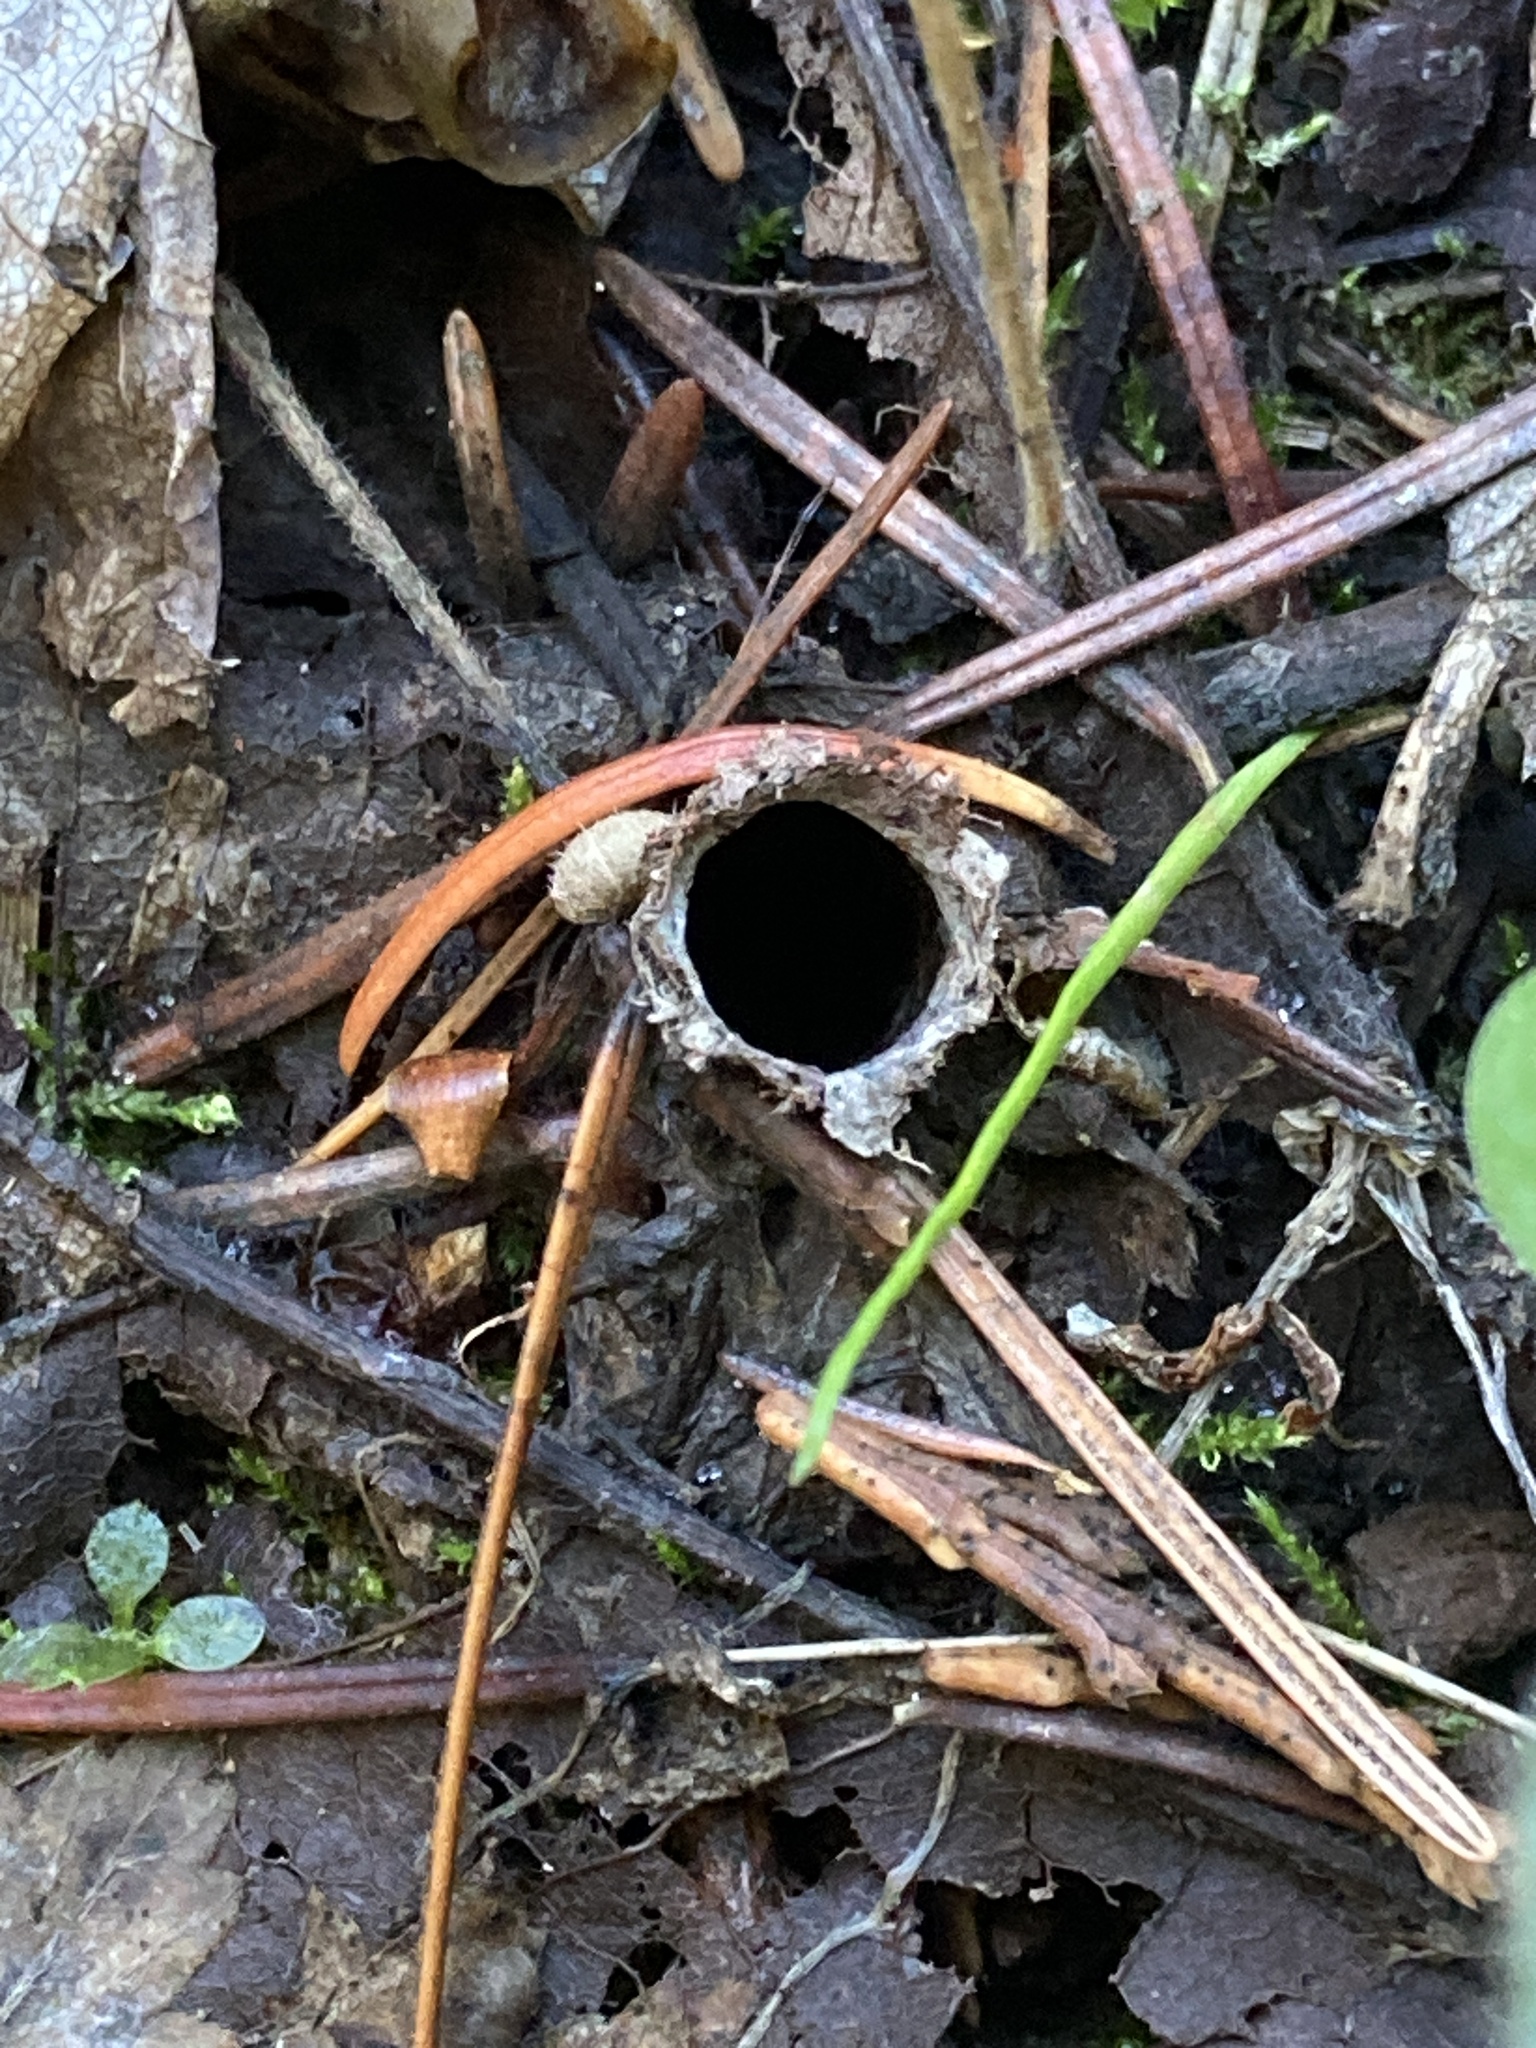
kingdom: Animalia
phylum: Arthropoda
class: Arachnida
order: Araneae
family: Antrodiaetidae
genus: Atypoides
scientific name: Atypoides riversi
